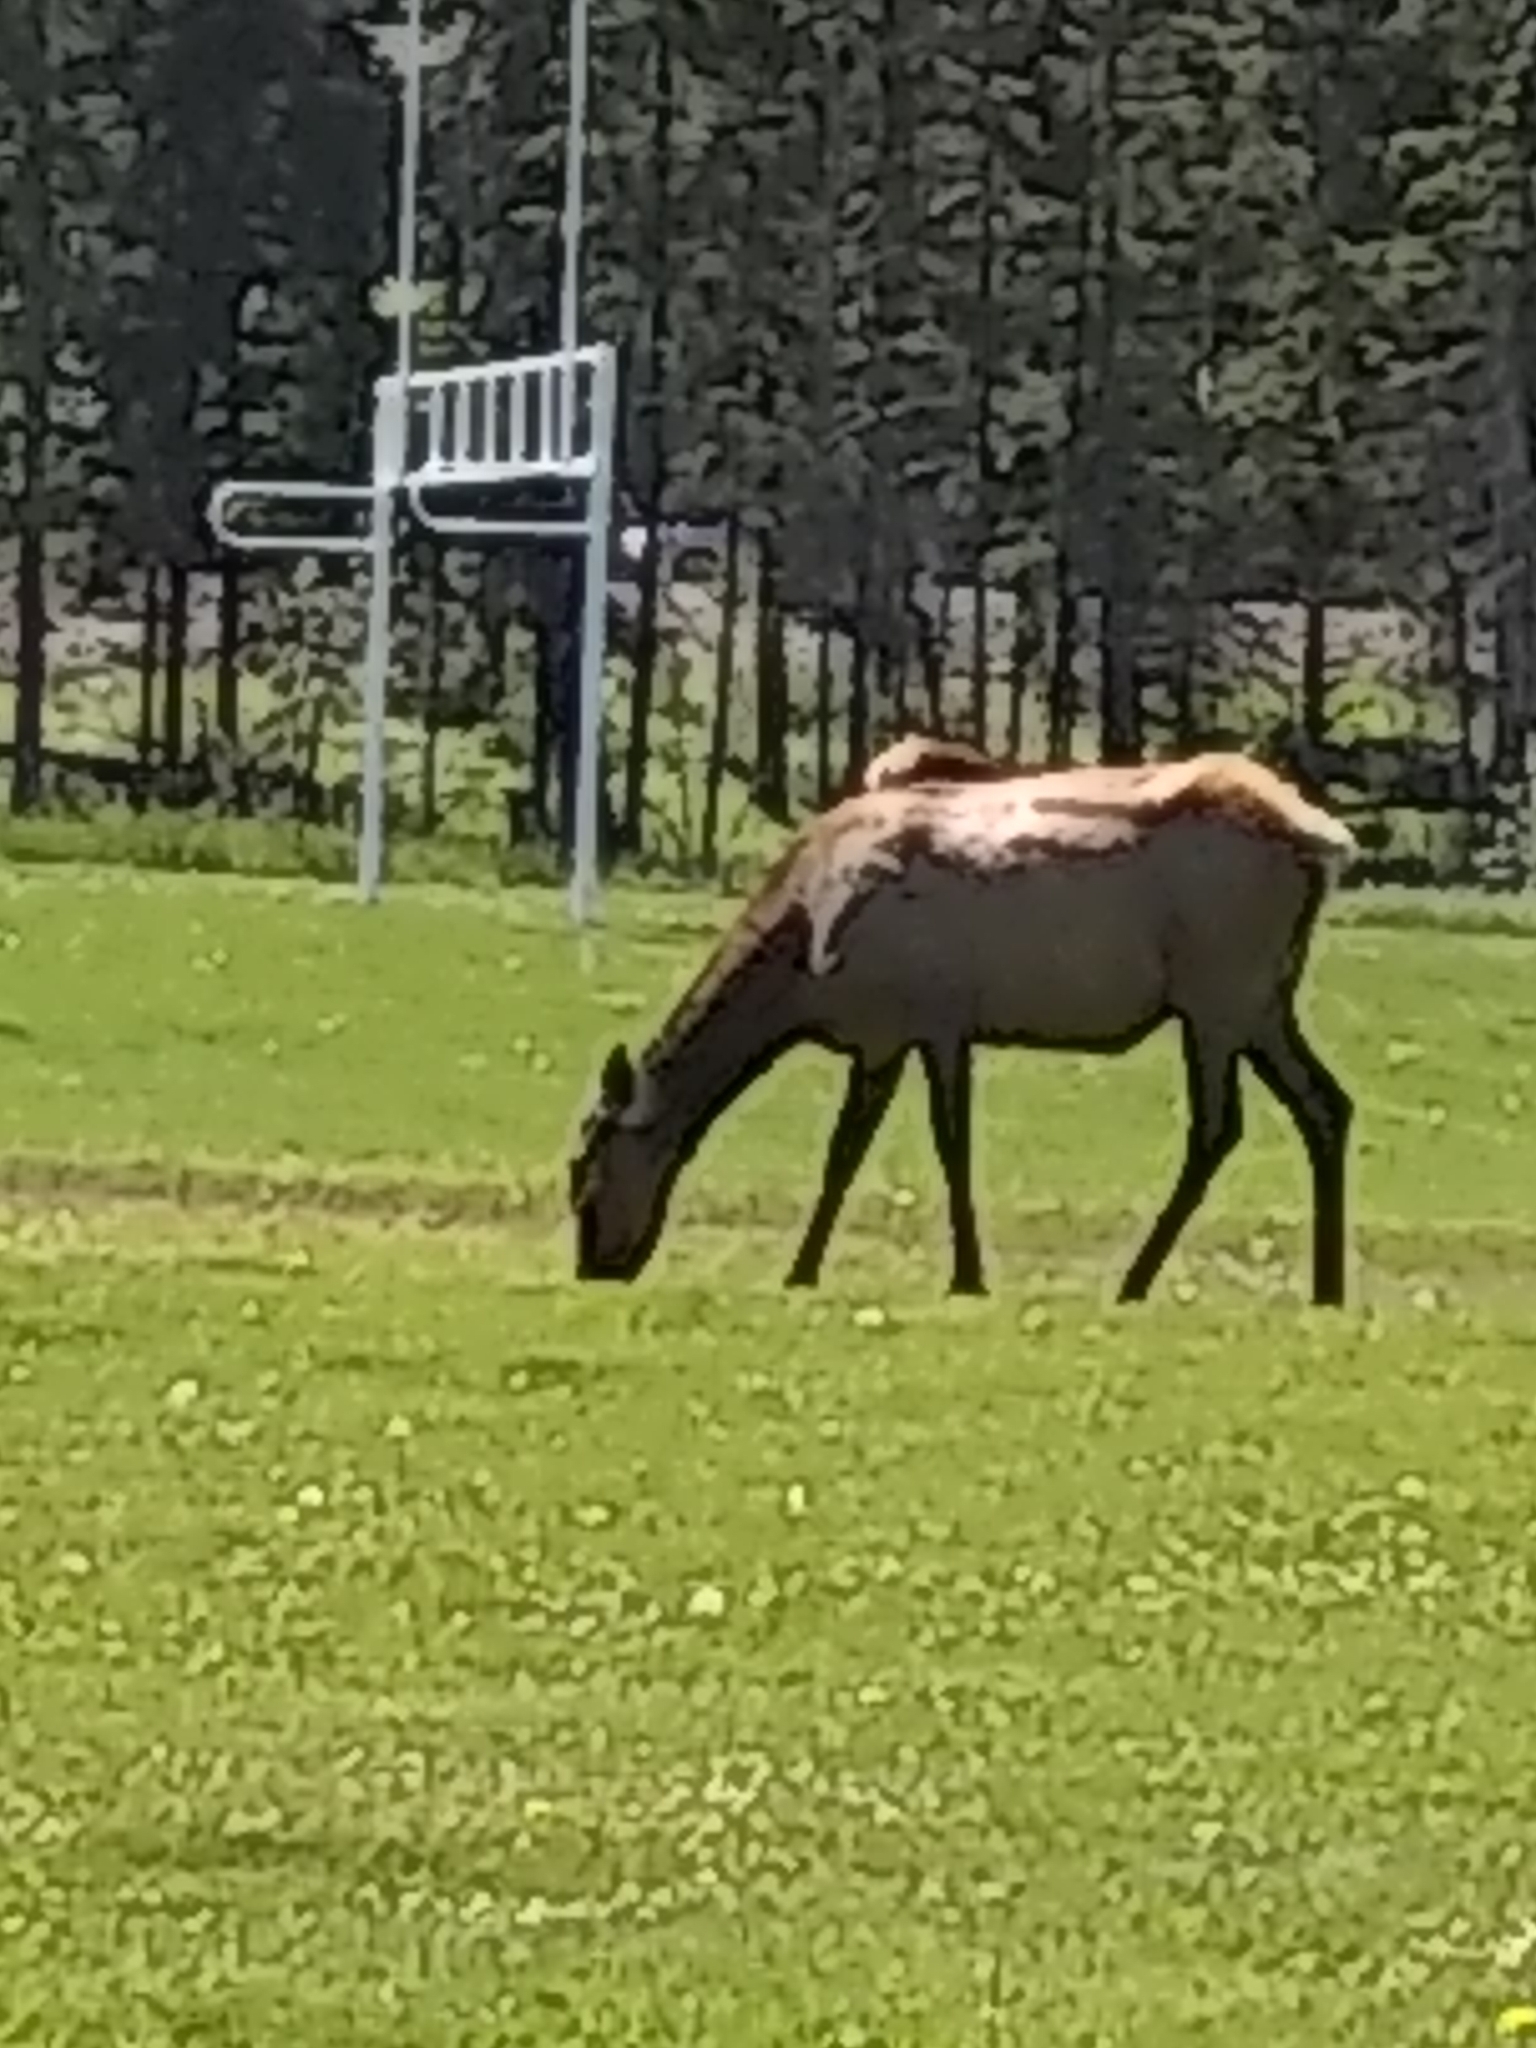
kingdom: Animalia
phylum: Chordata
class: Mammalia
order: Artiodactyla
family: Cervidae
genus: Cervus
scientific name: Cervus elaphus
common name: Red deer
